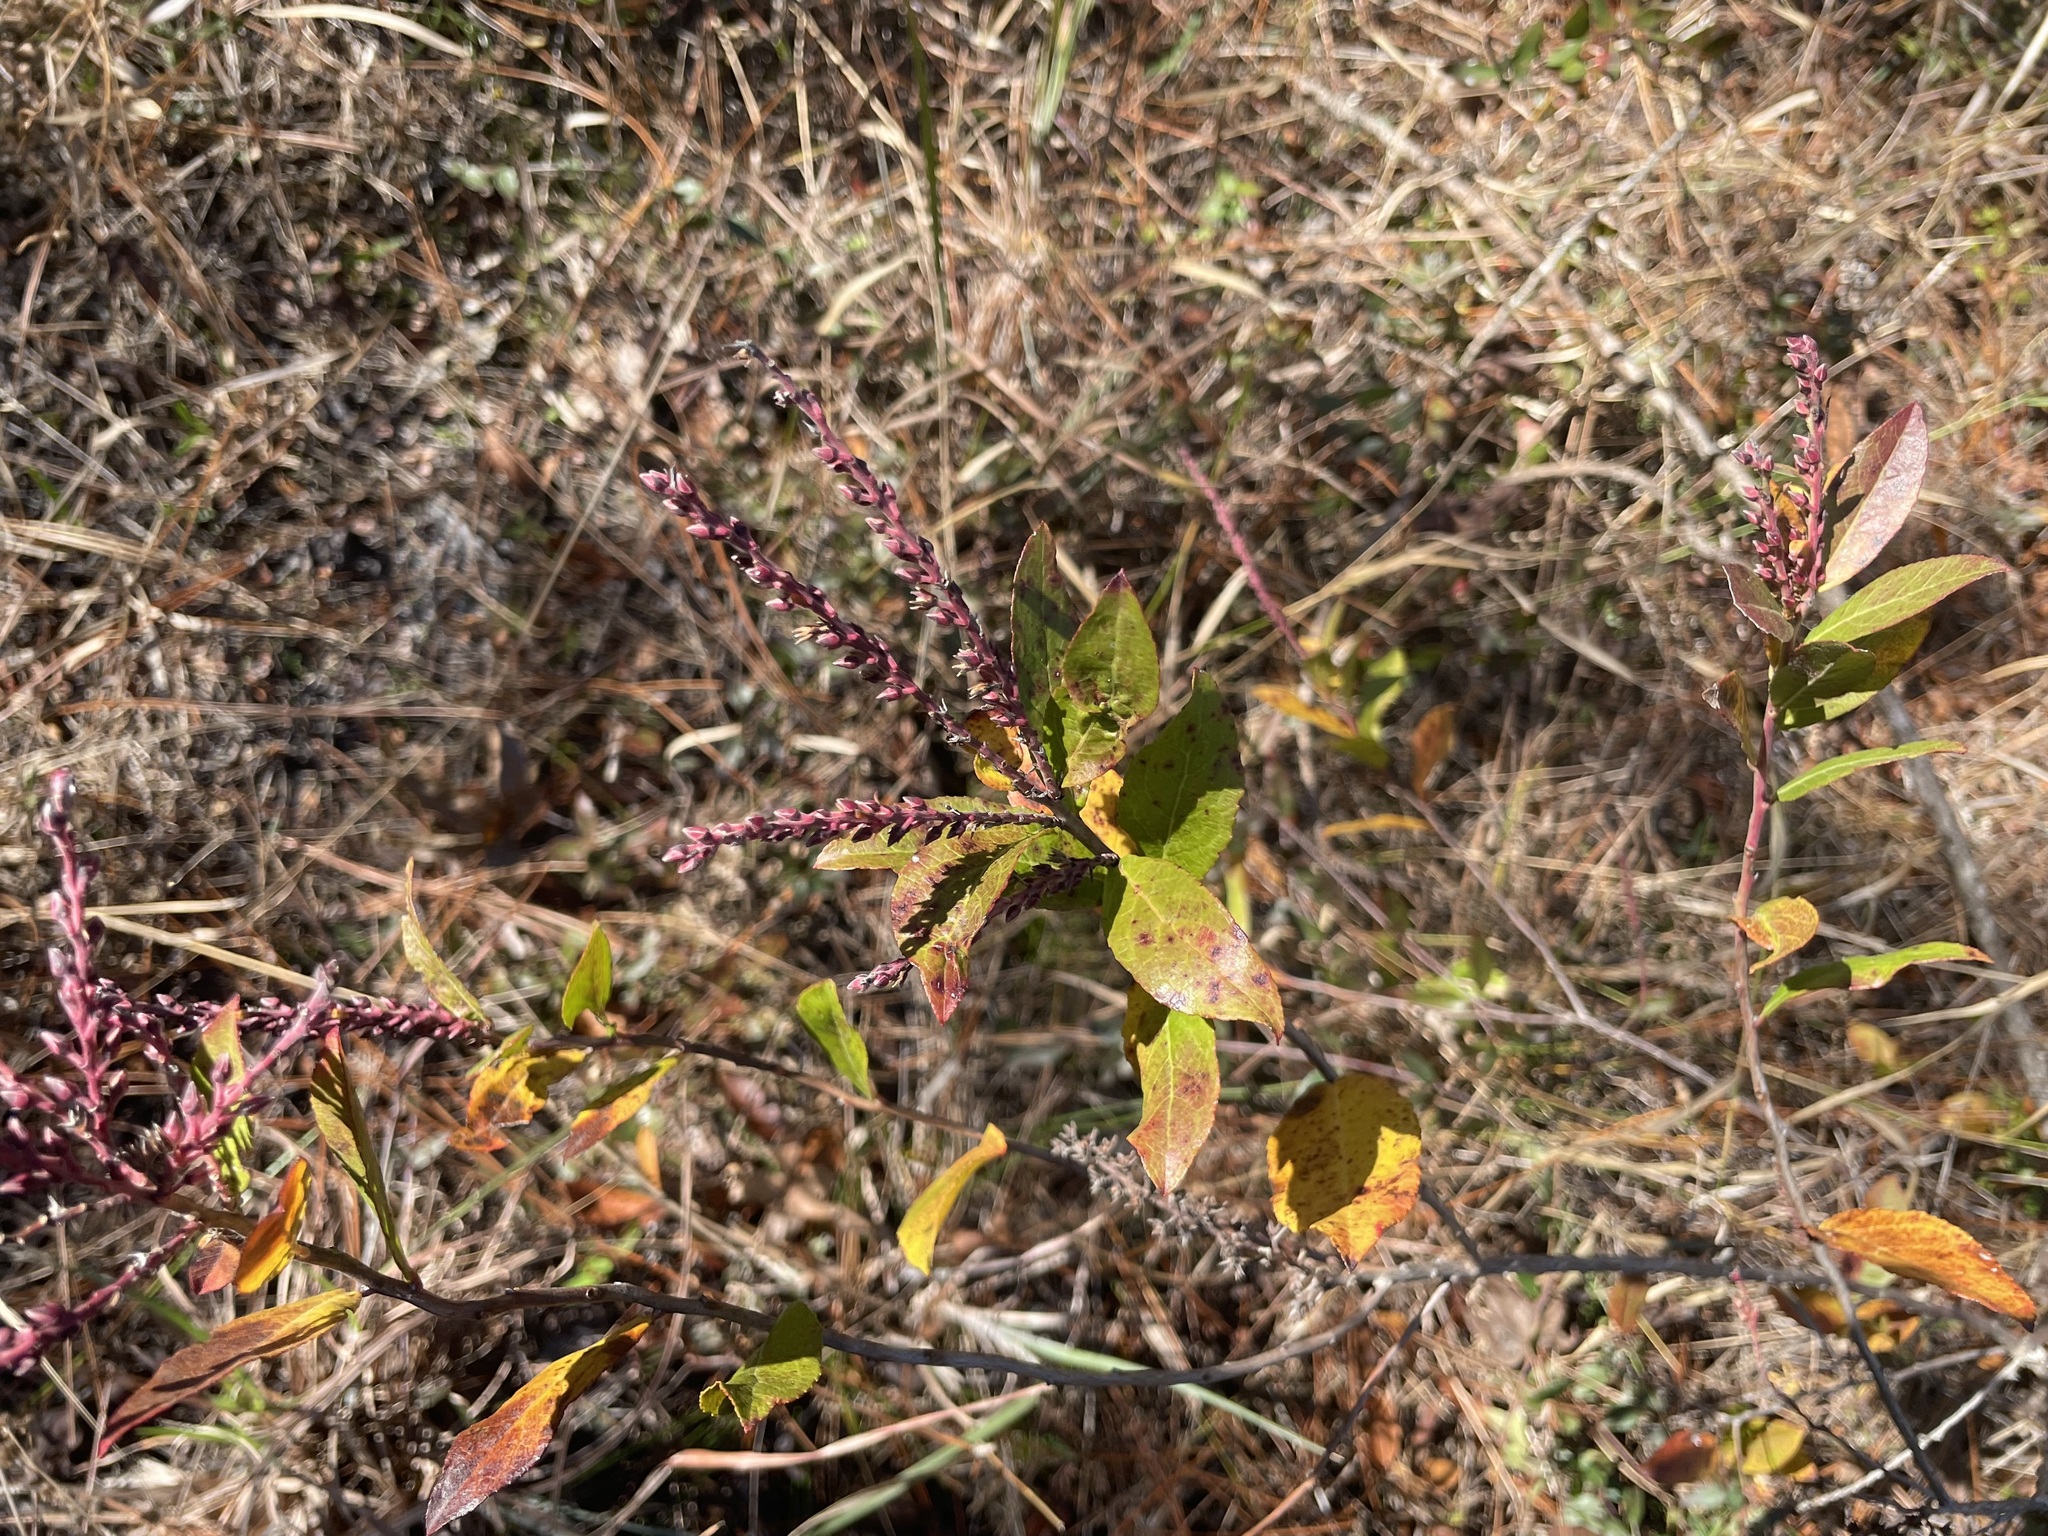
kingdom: Plantae
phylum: Tracheophyta
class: Magnoliopsida
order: Ericales
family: Ericaceae
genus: Eubotrys
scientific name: Eubotrys racemosa
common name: Fetterbush
